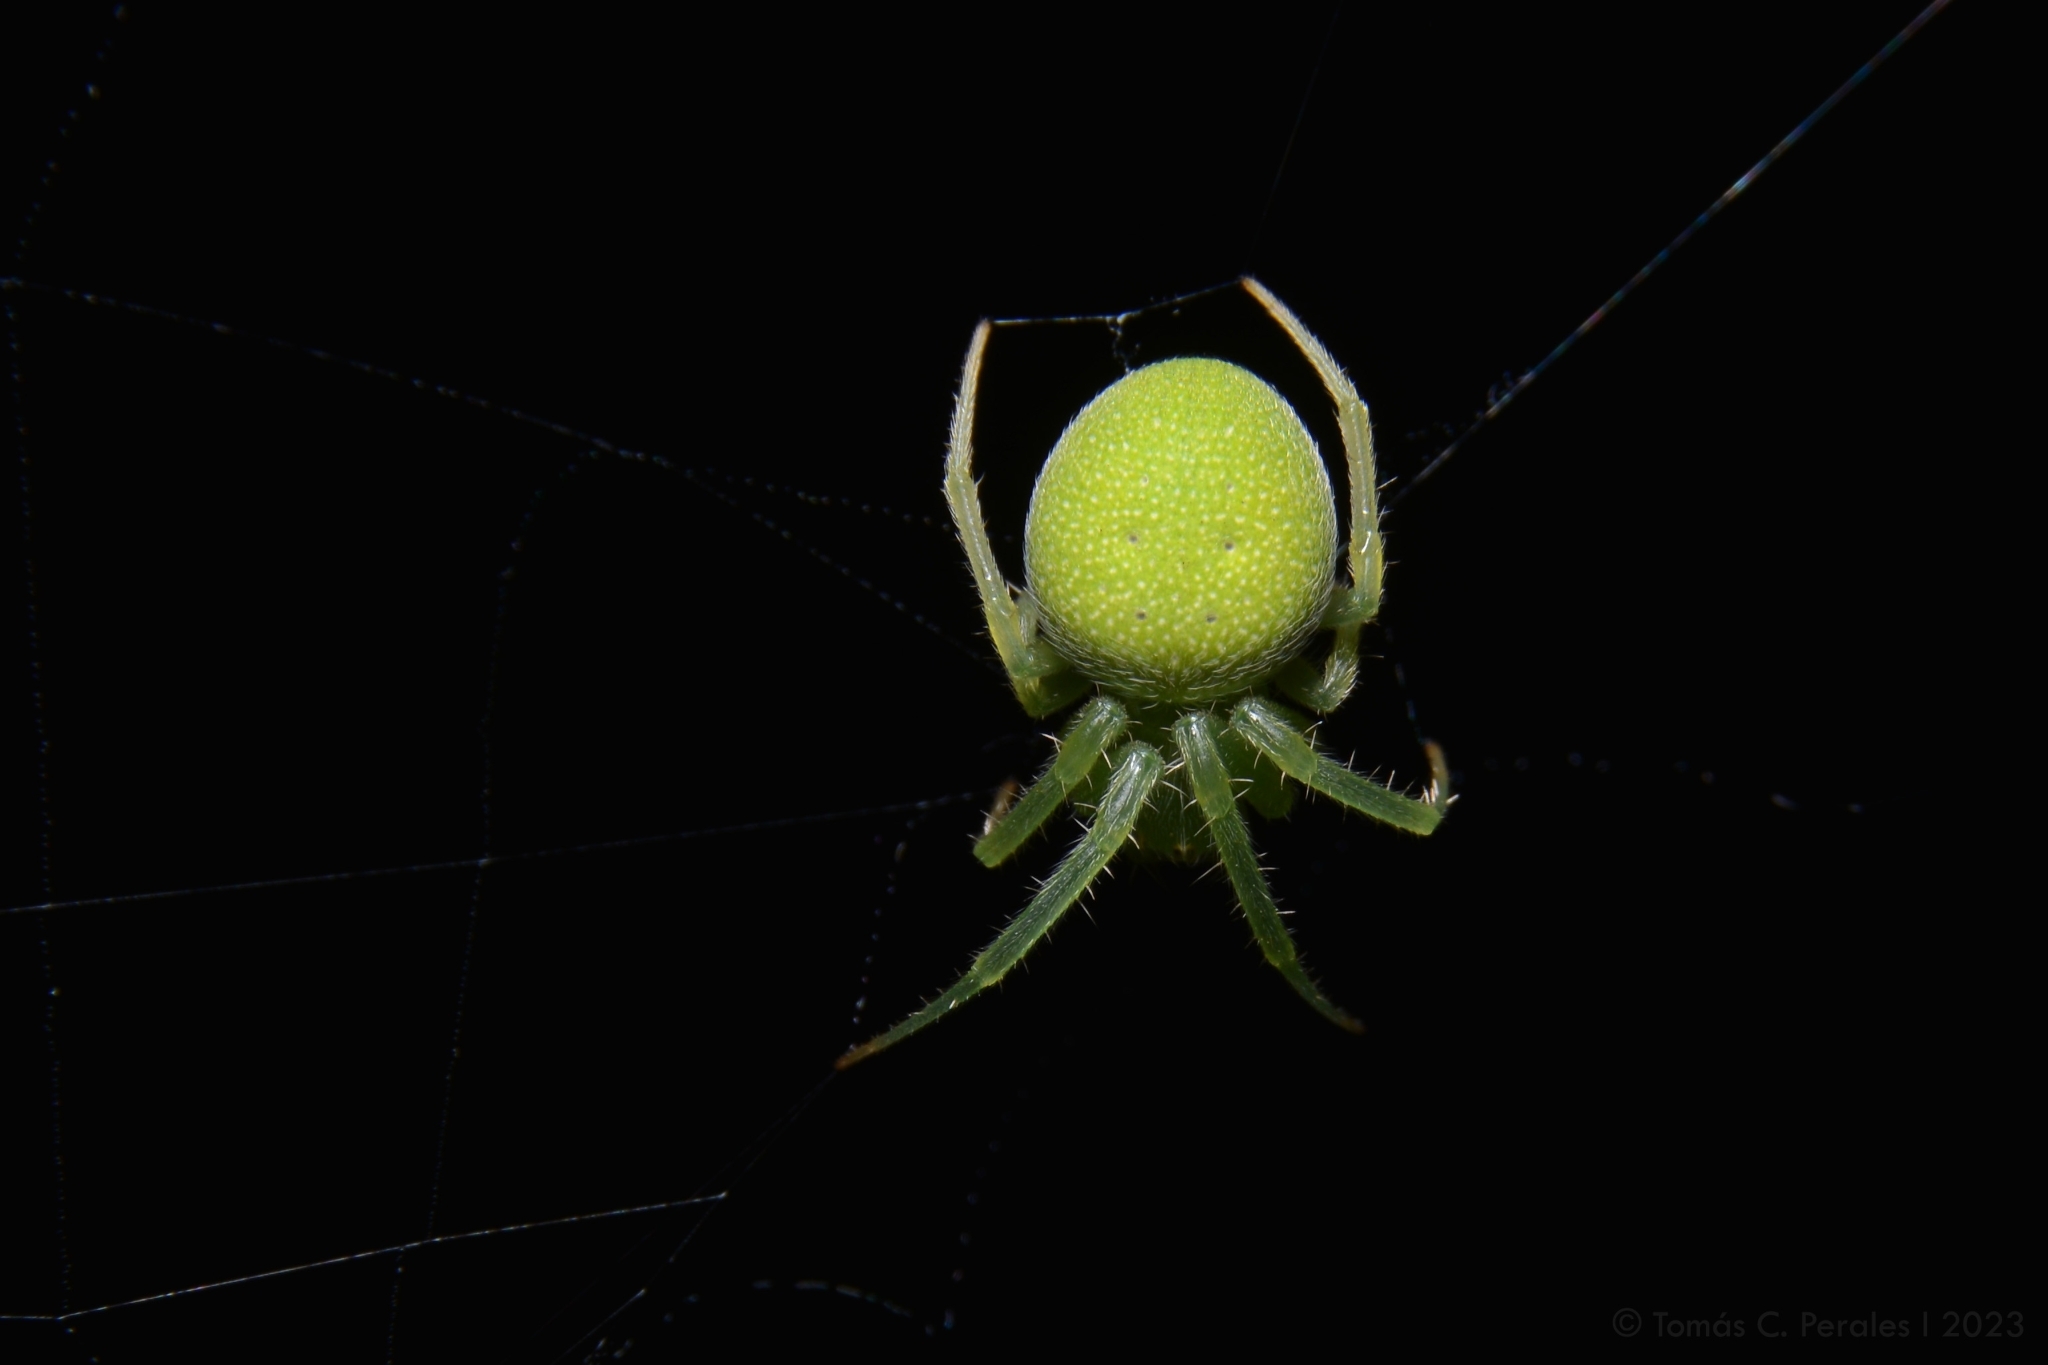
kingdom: Animalia
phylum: Arthropoda
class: Arachnida
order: Araneae
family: Araneidae
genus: Araneus
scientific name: Araneus uniformis
